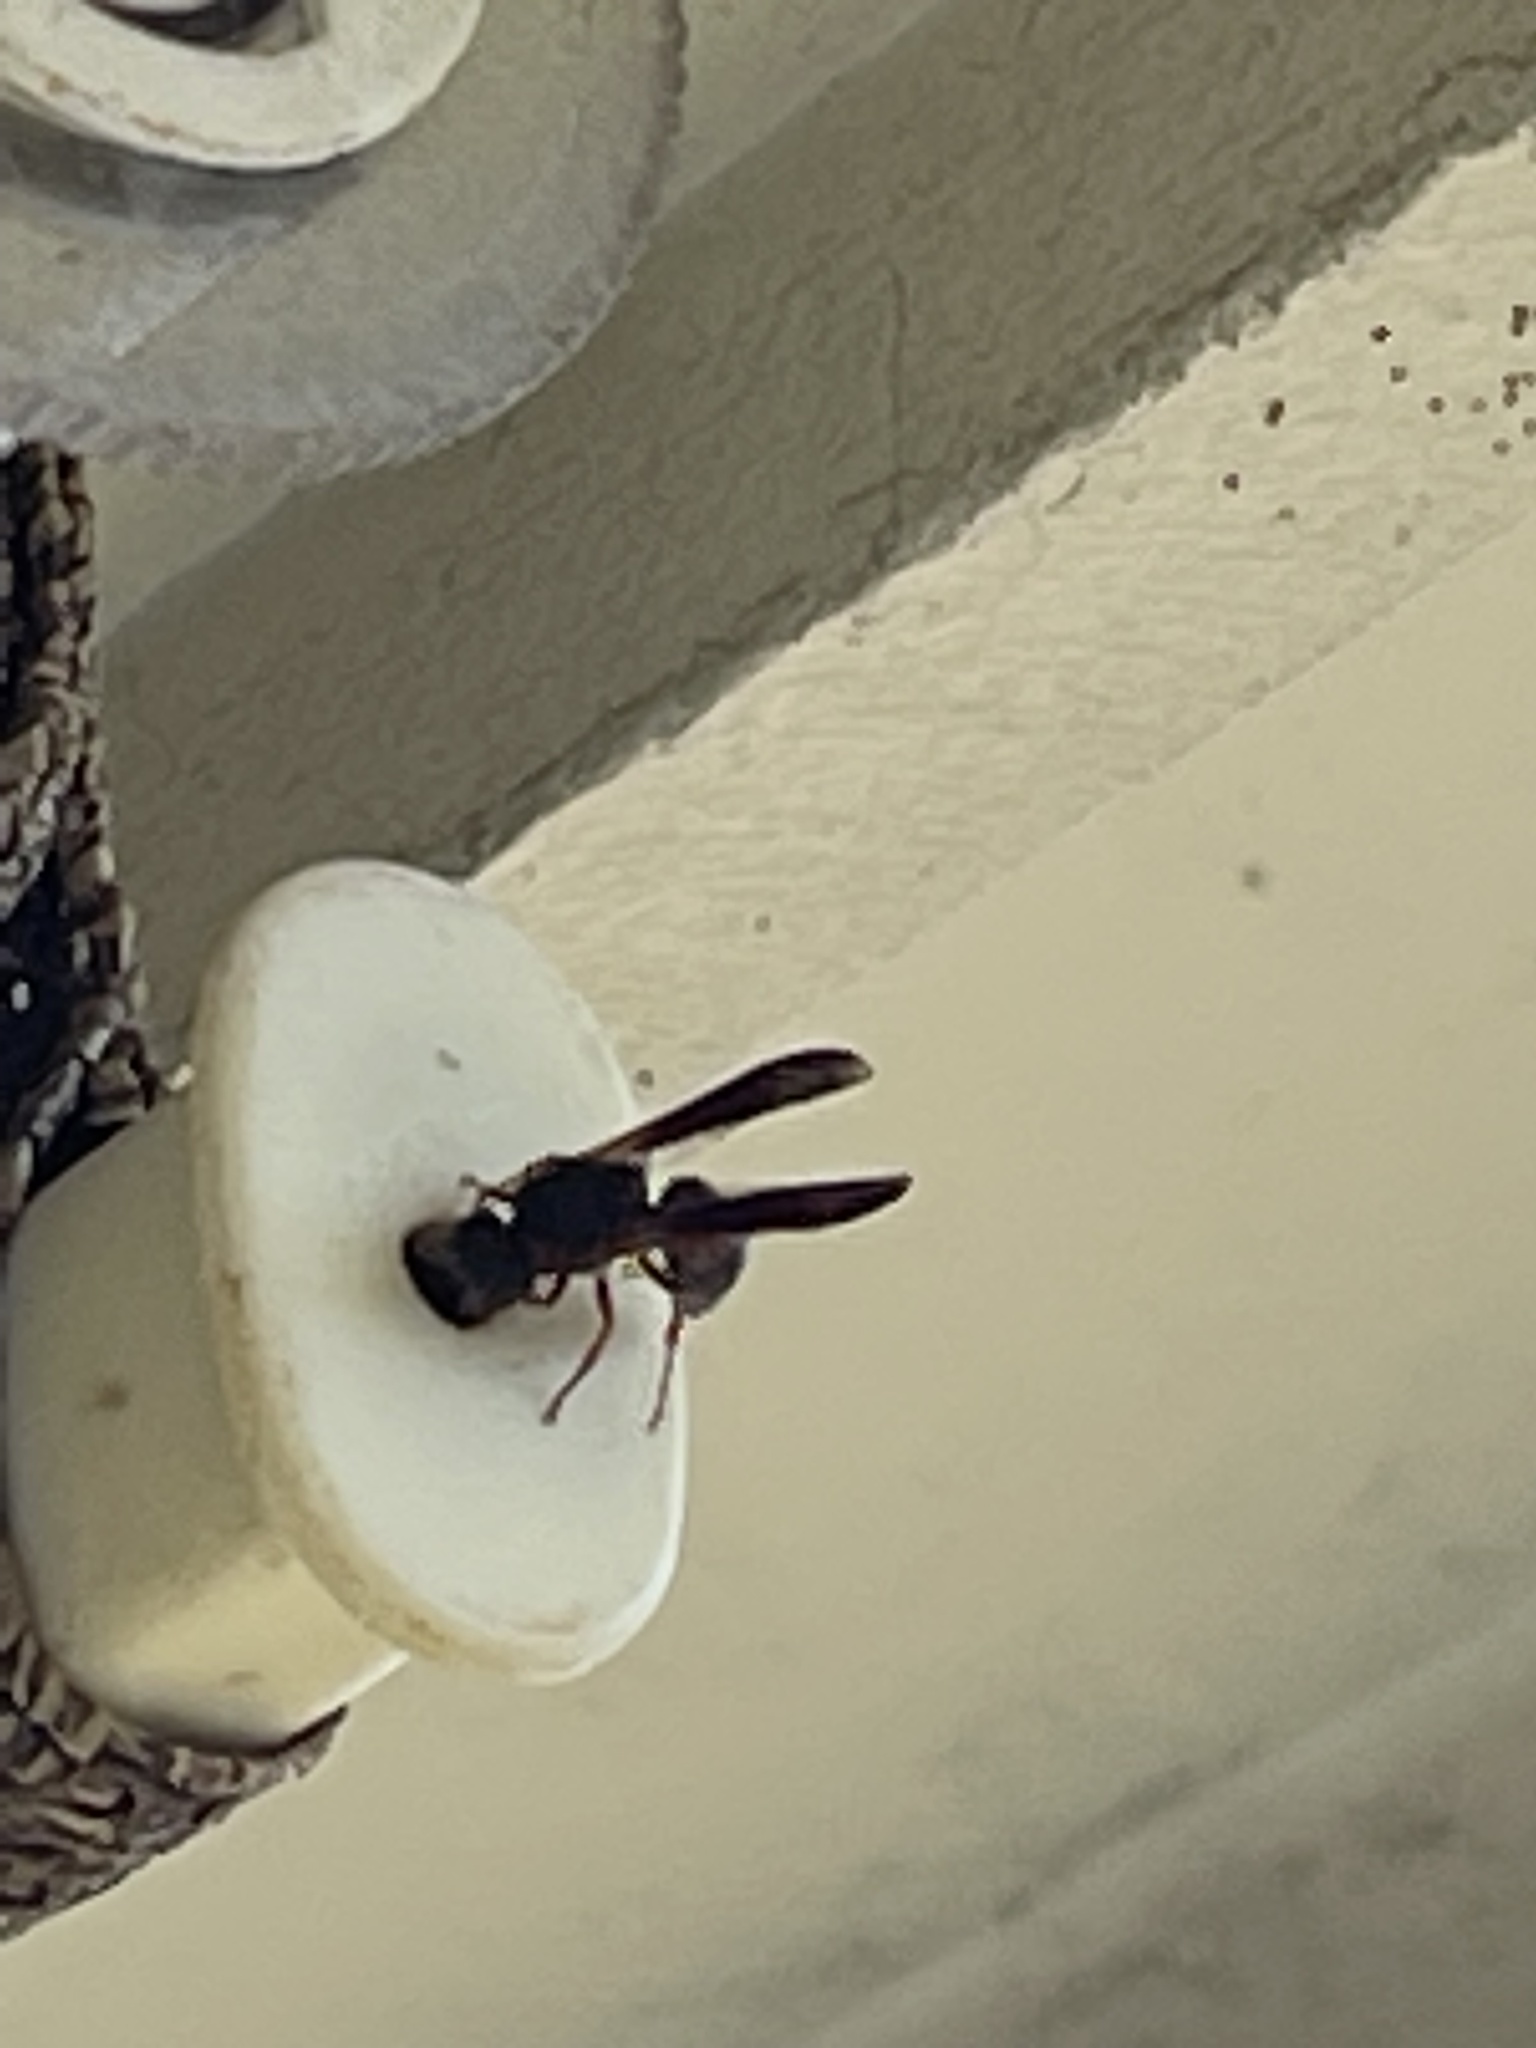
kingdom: Animalia
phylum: Arthropoda
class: Insecta
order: Hymenoptera
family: Eumenidae
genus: Pachodynerus
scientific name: Pachodynerus erynnis
